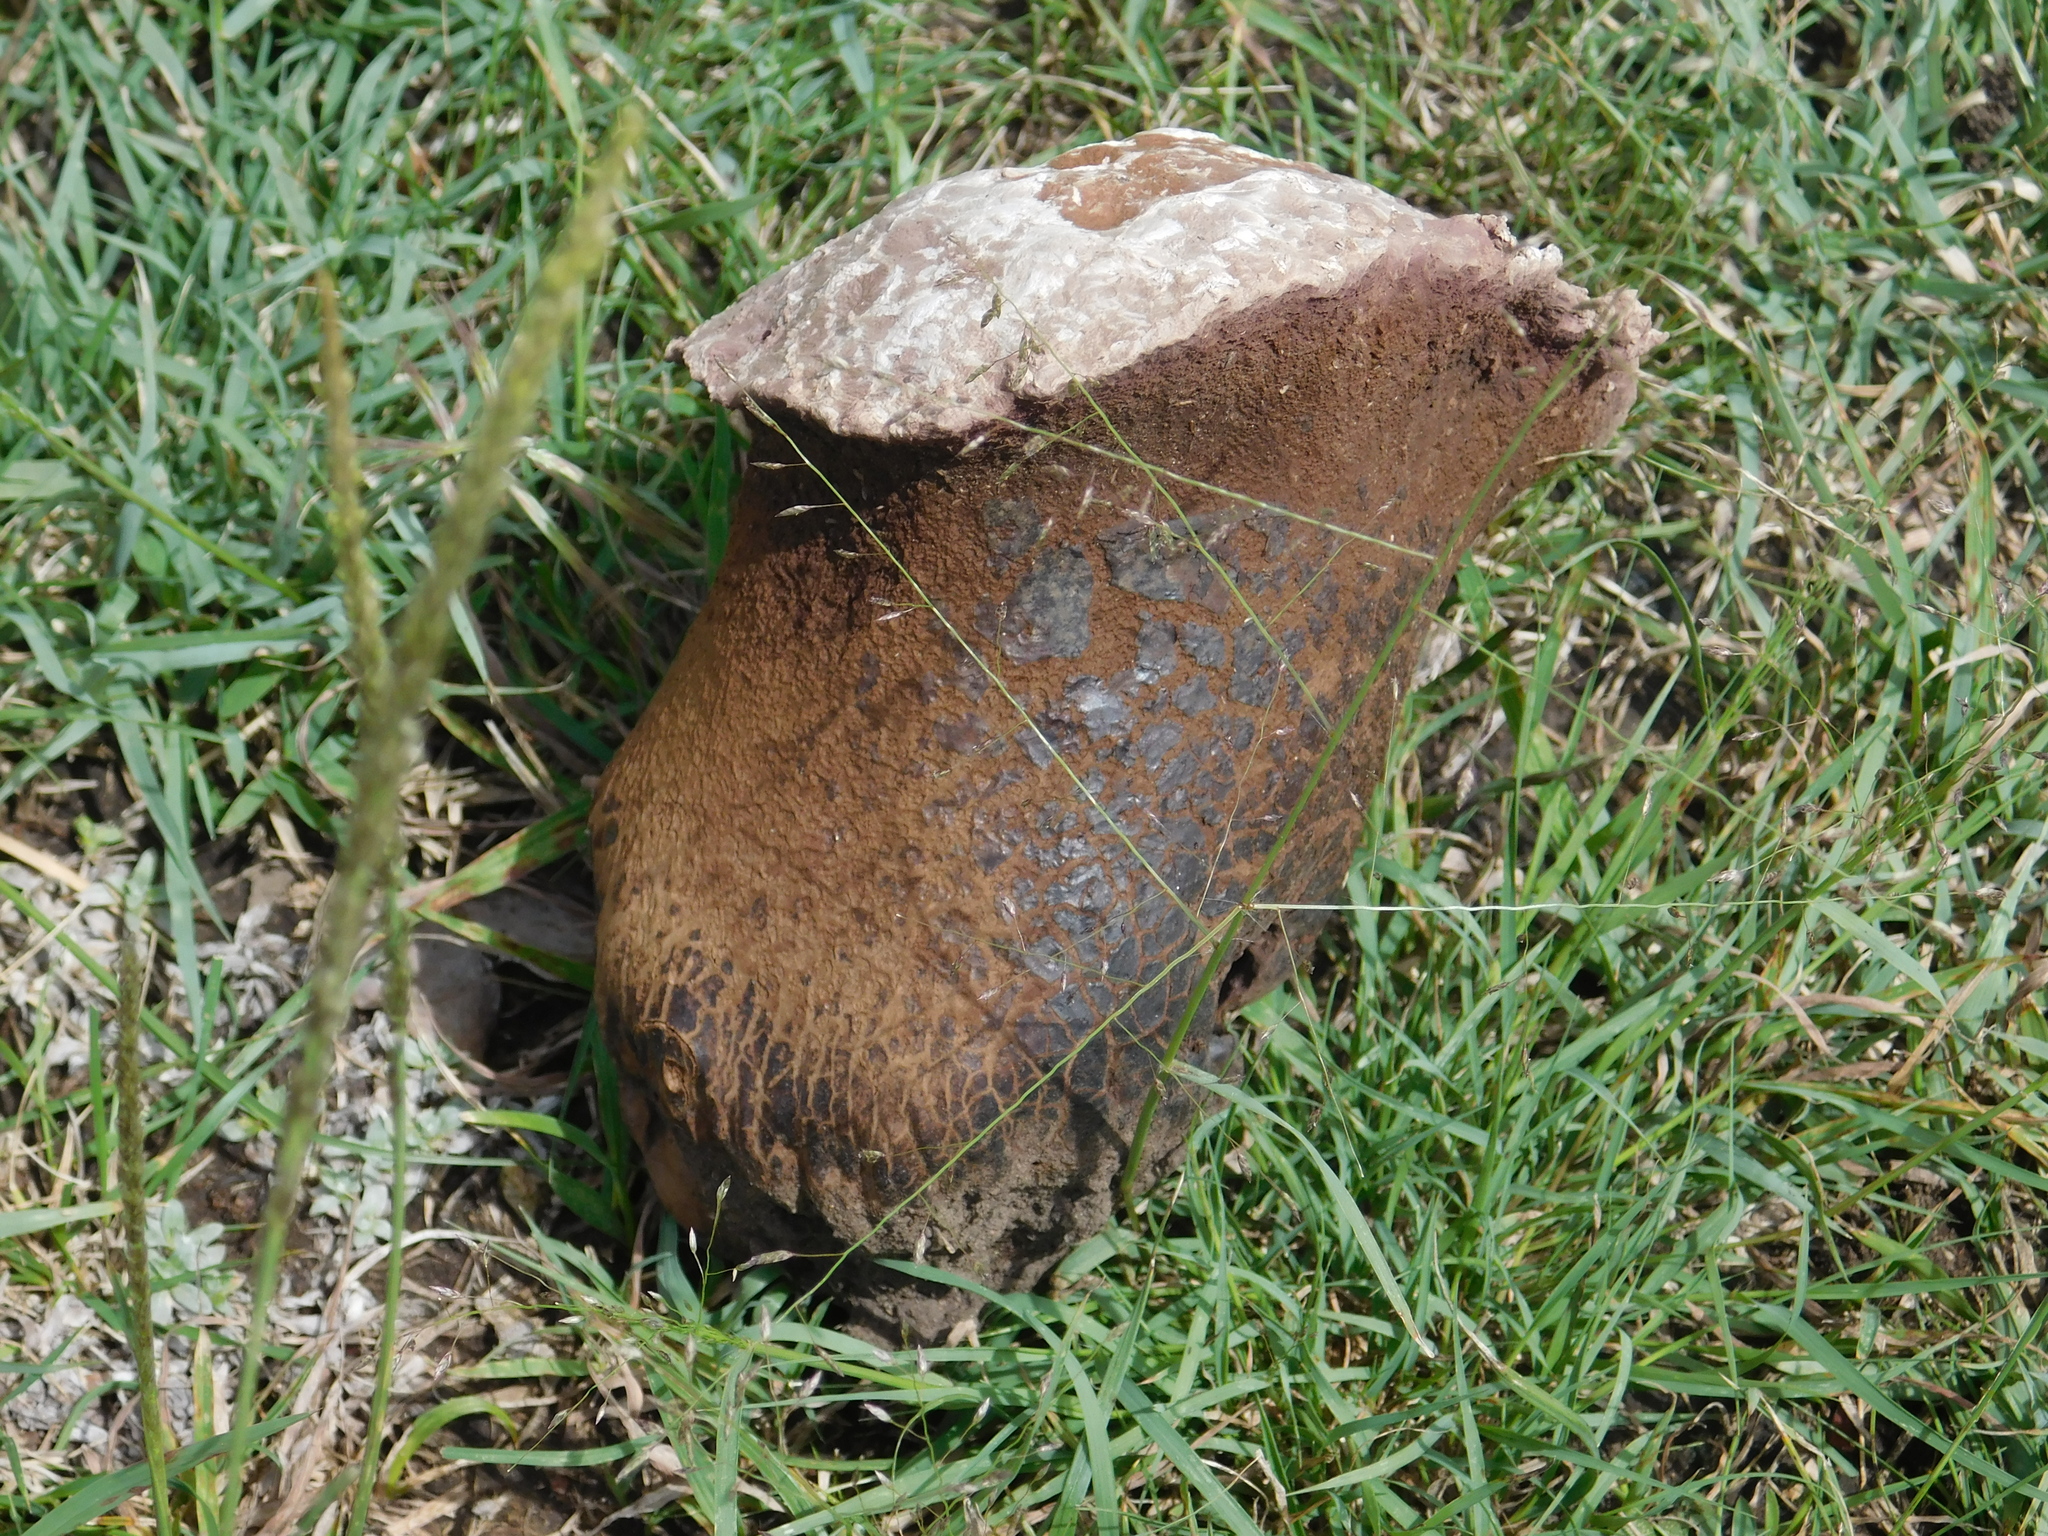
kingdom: Fungi
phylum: Basidiomycota
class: Agaricomycetes
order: Agaricales
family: Lycoperdaceae
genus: Calvatia
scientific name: Calvatia cyathiformis
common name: Purple-spored puffball
